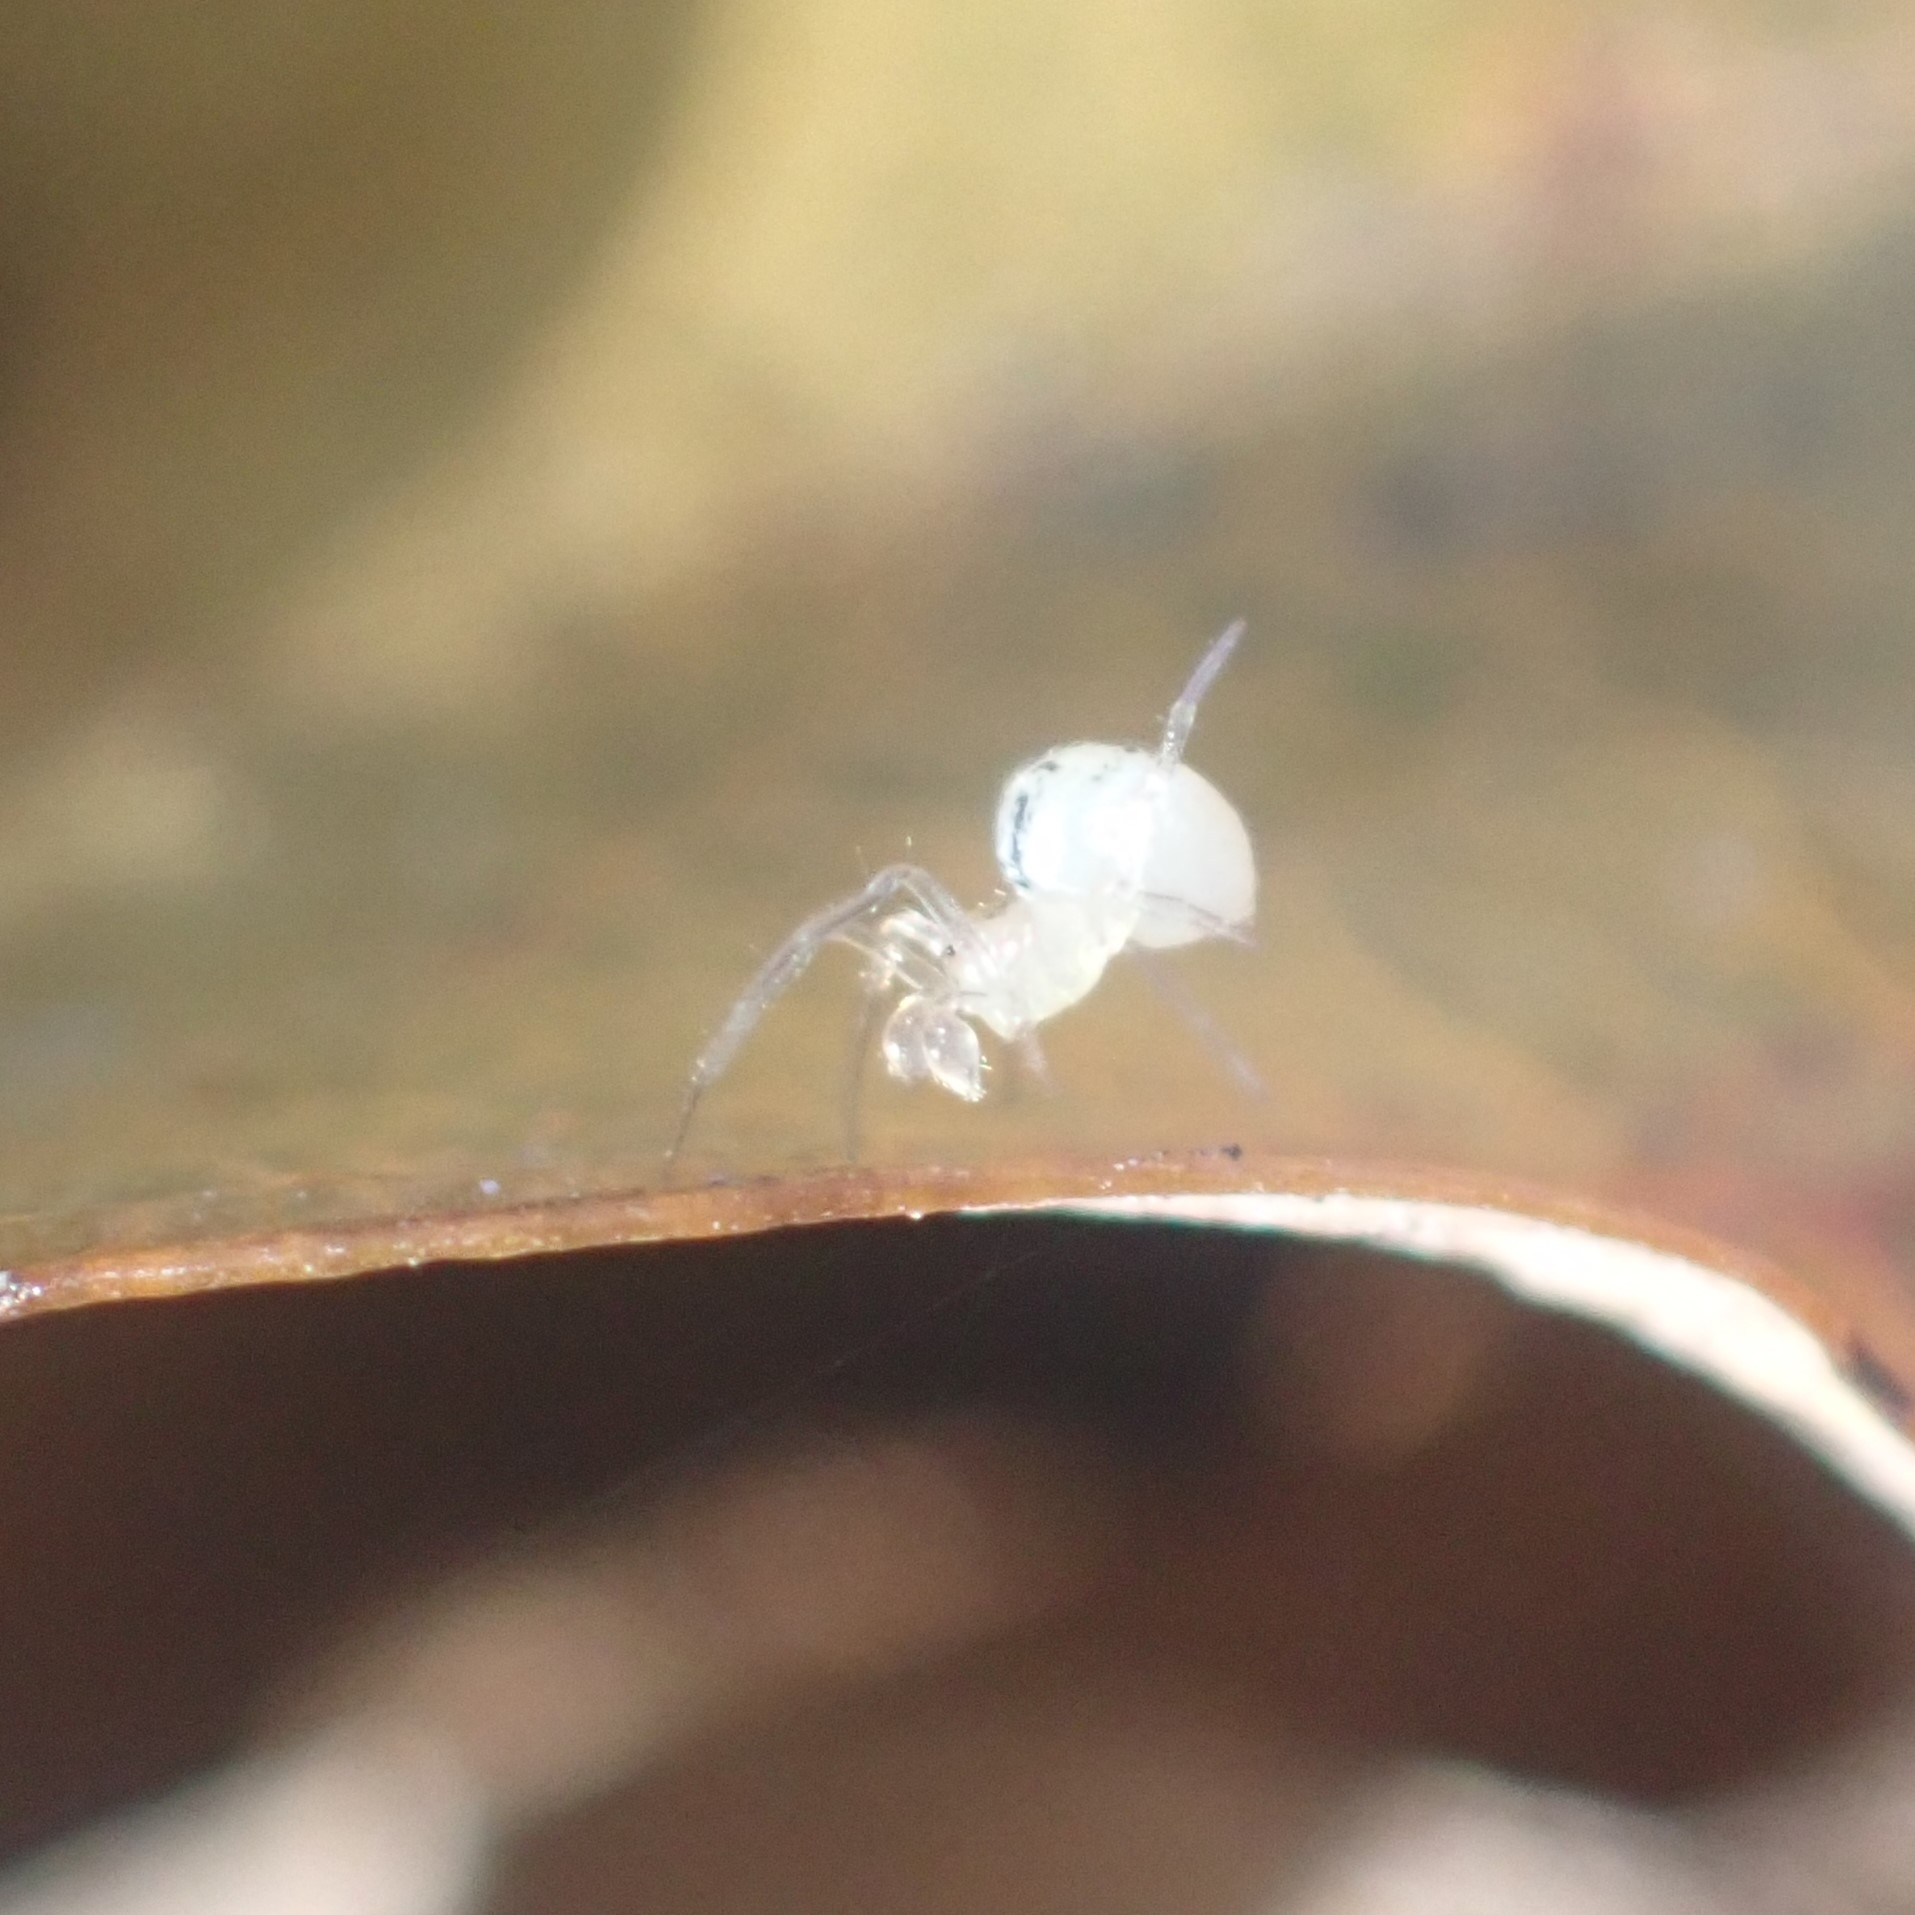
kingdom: Animalia
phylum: Arthropoda
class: Arachnida
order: Araneae
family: Theridiidae
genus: Paidiscura
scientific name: Paidiscura pallens
